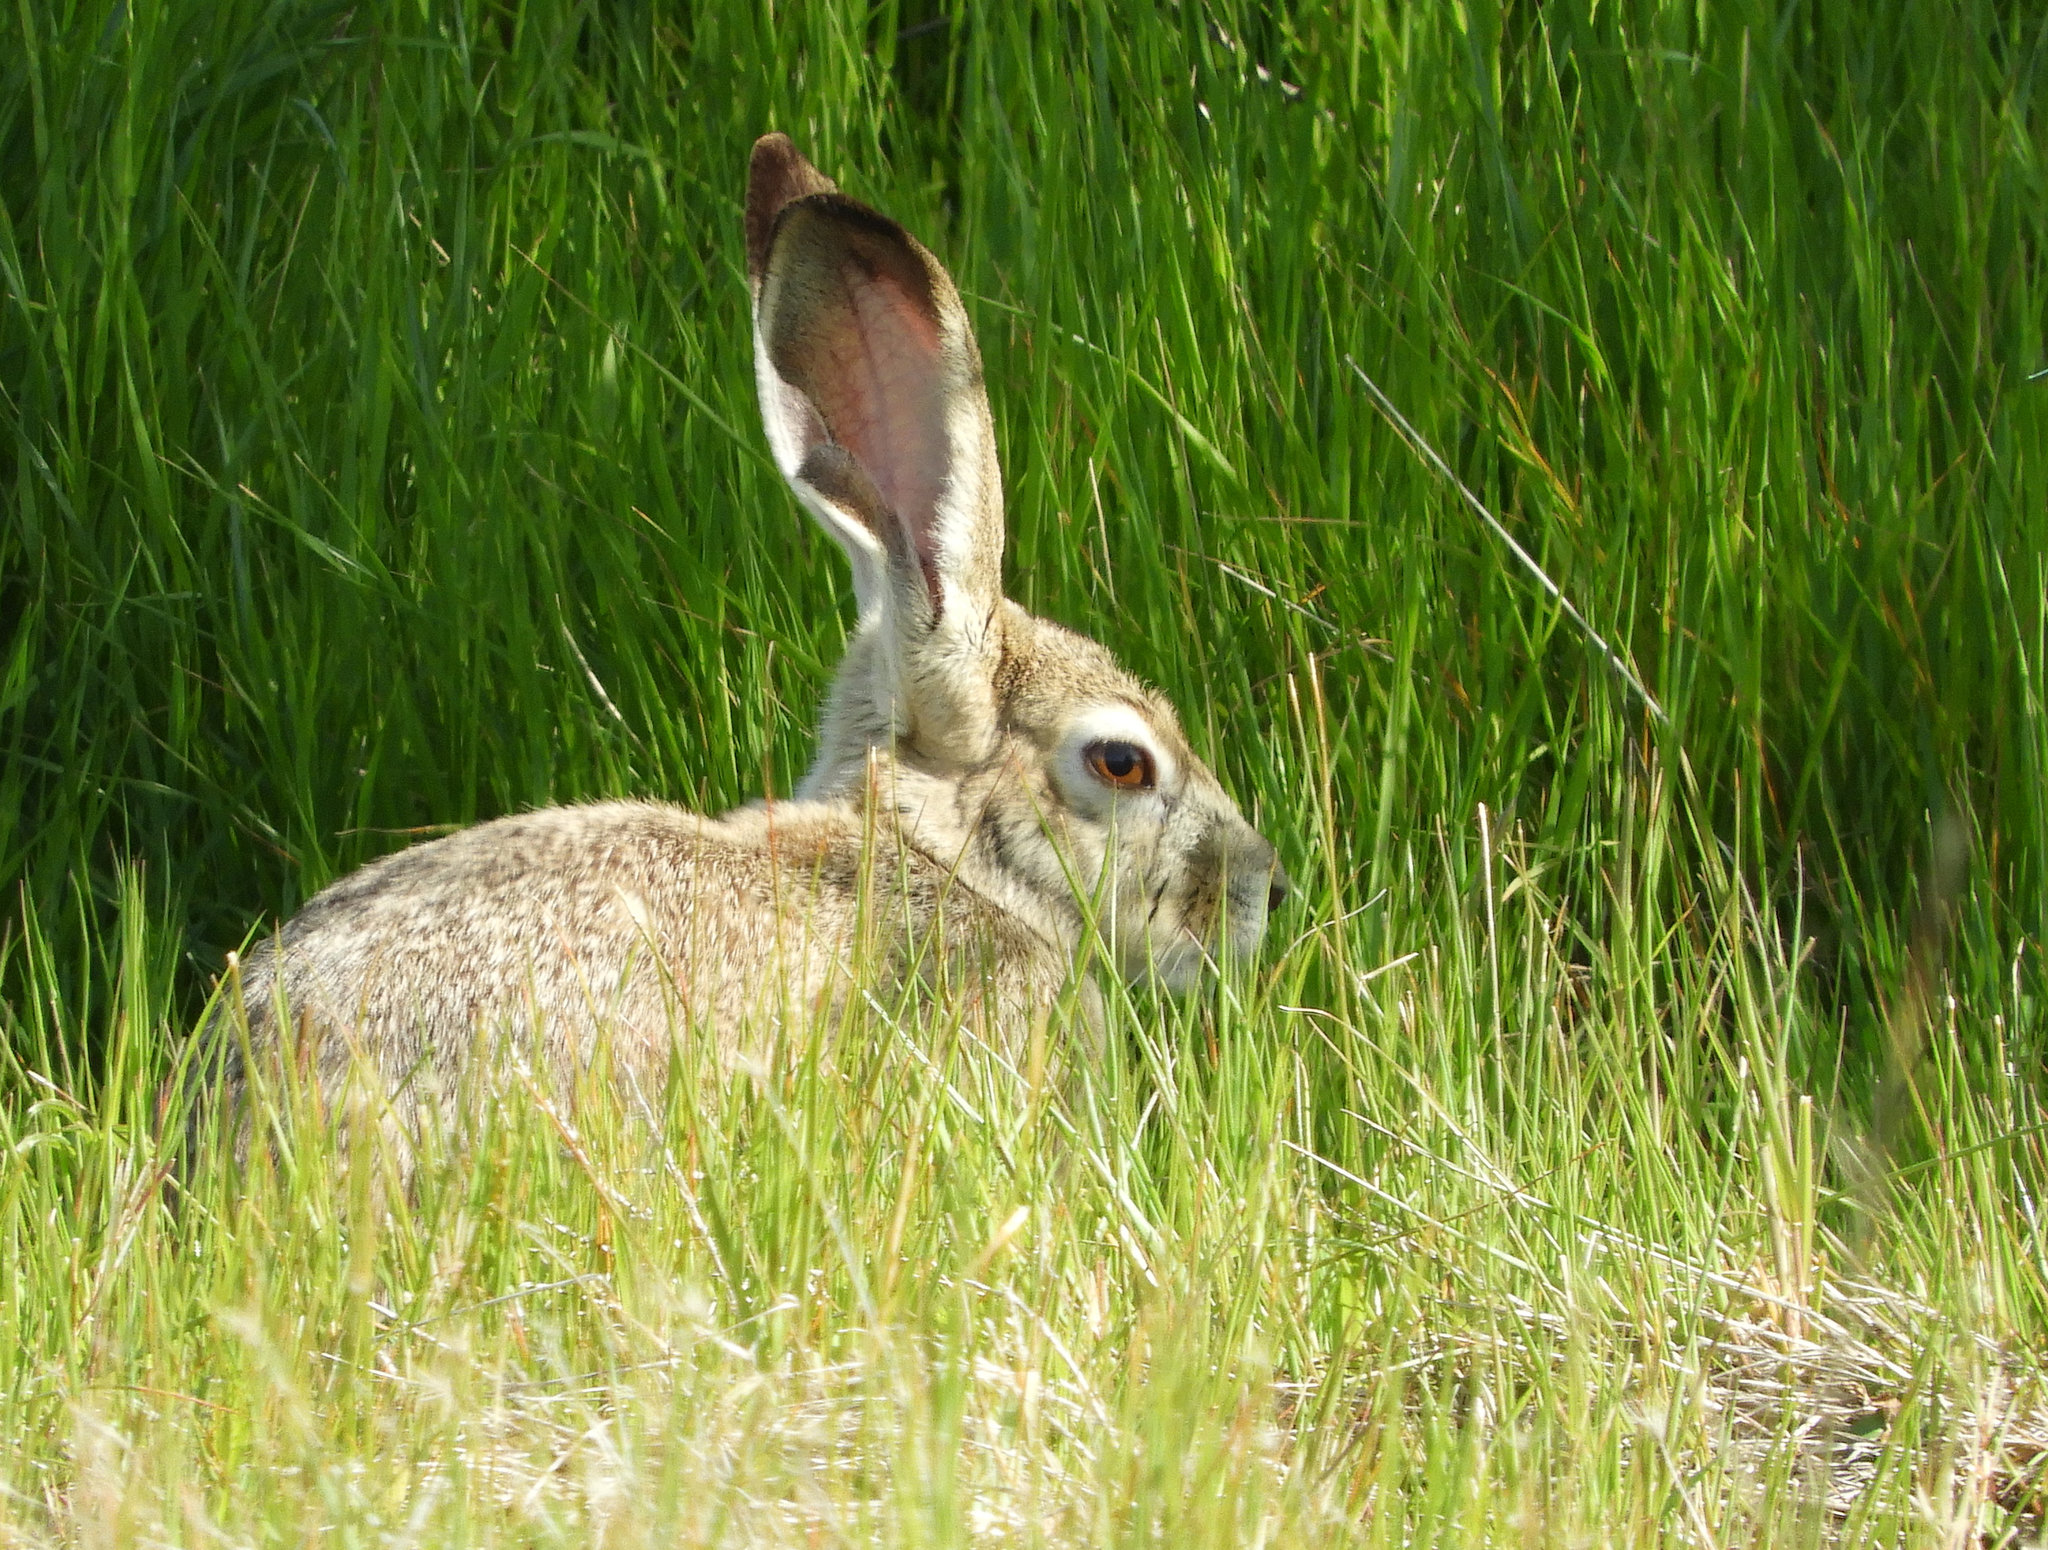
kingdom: Animalia
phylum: Chordata
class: Mammalia
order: Lagomorpha
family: Leporidae
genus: Lepus
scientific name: Lepus californicus
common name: Black-tailed jackrabbit
